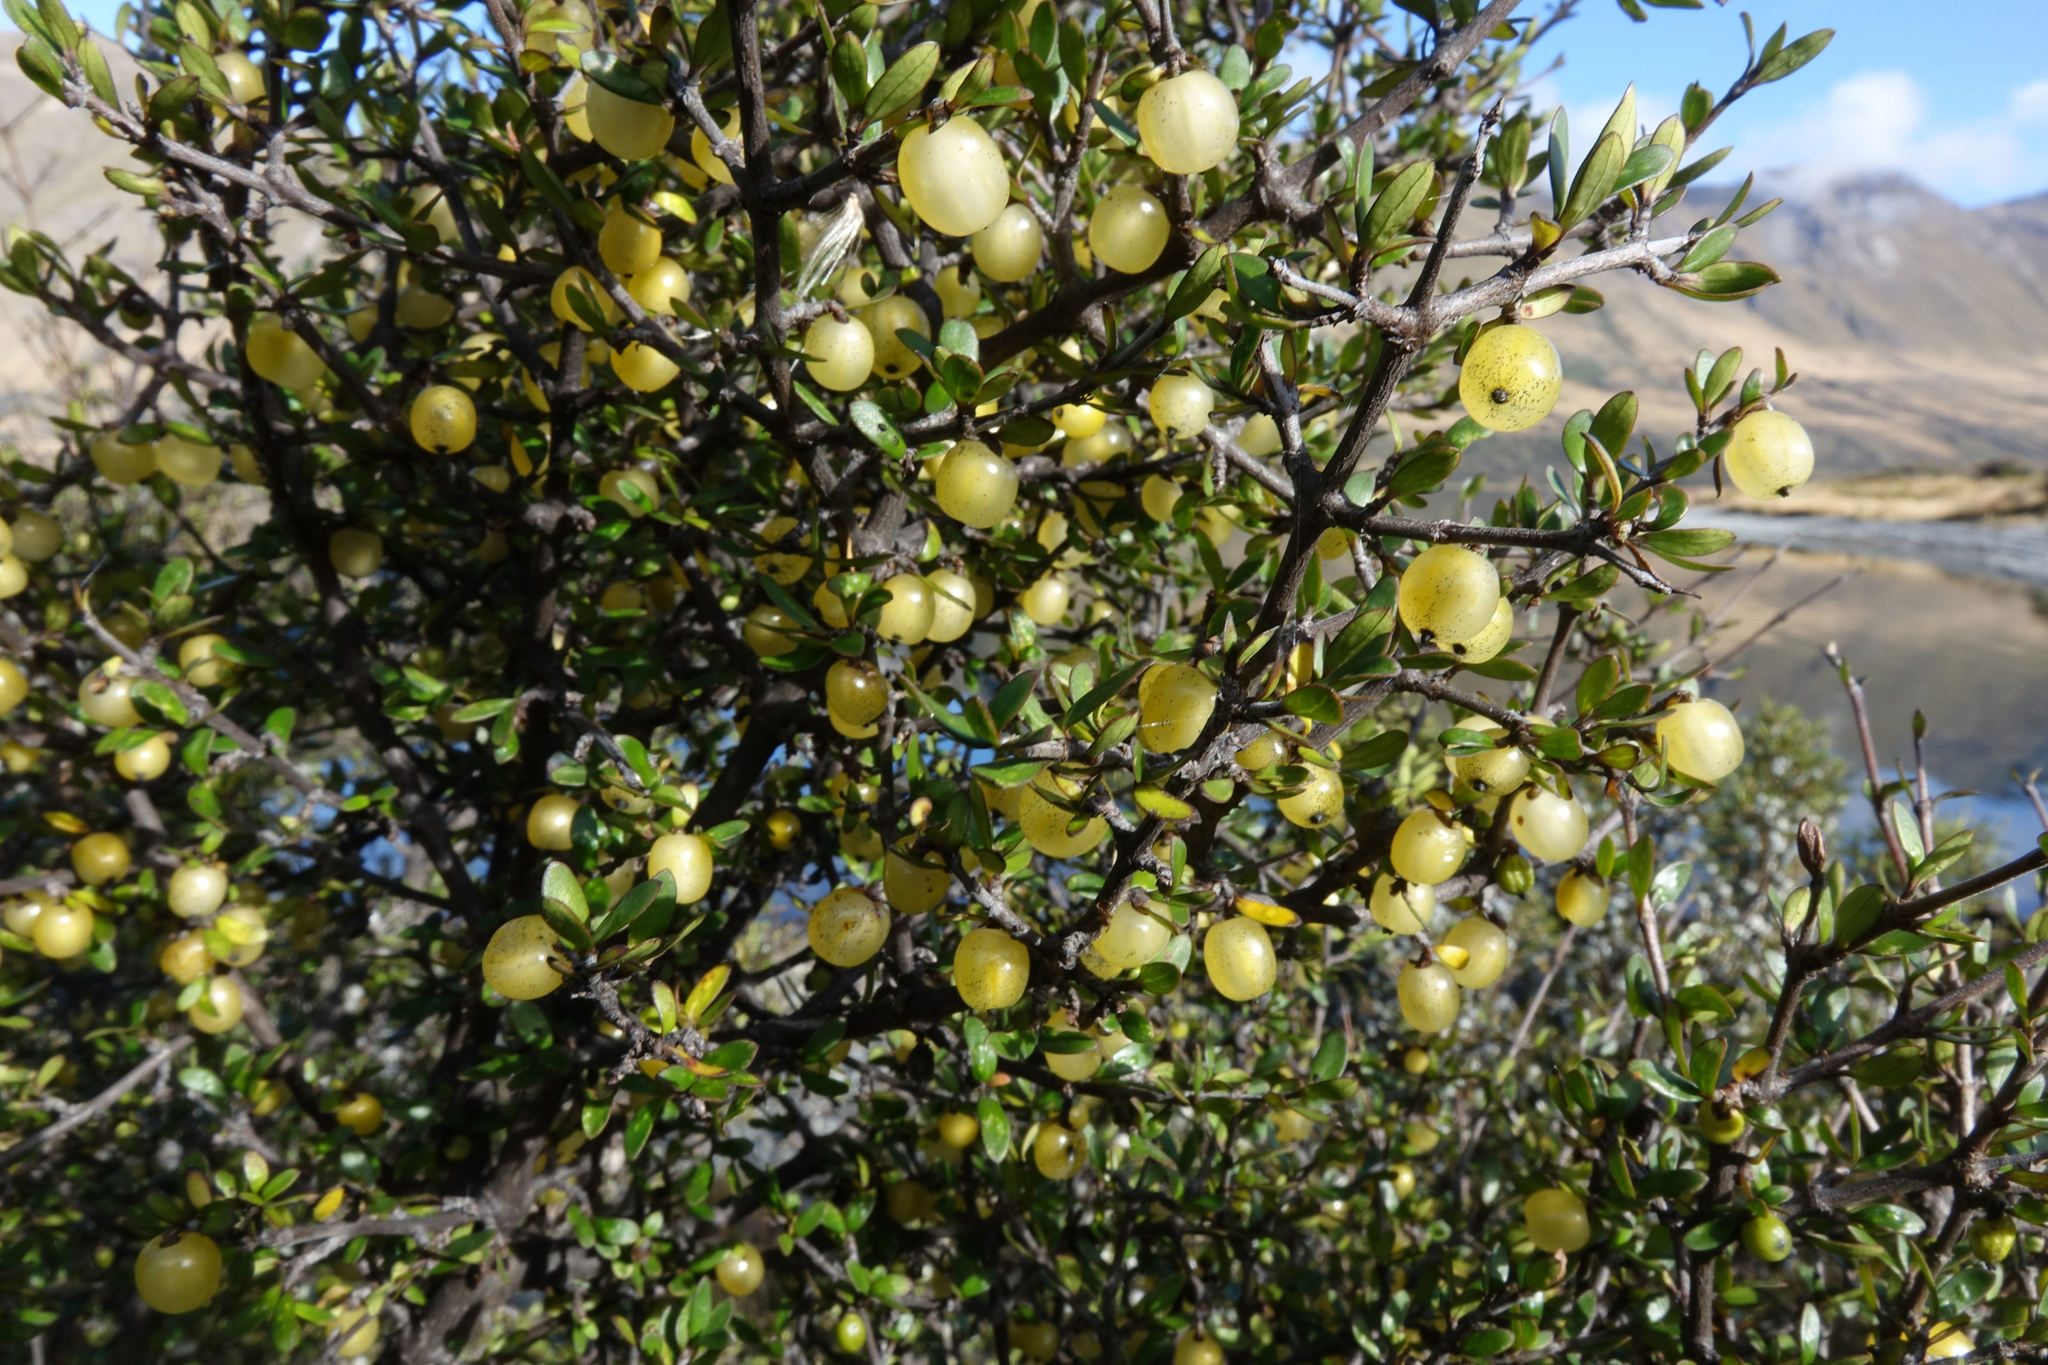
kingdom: Plantae
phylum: Tracheophyta
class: Magnoliopsida
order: Gentianales
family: Rubiaceae
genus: Coprosma
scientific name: Coprosma propinqua
